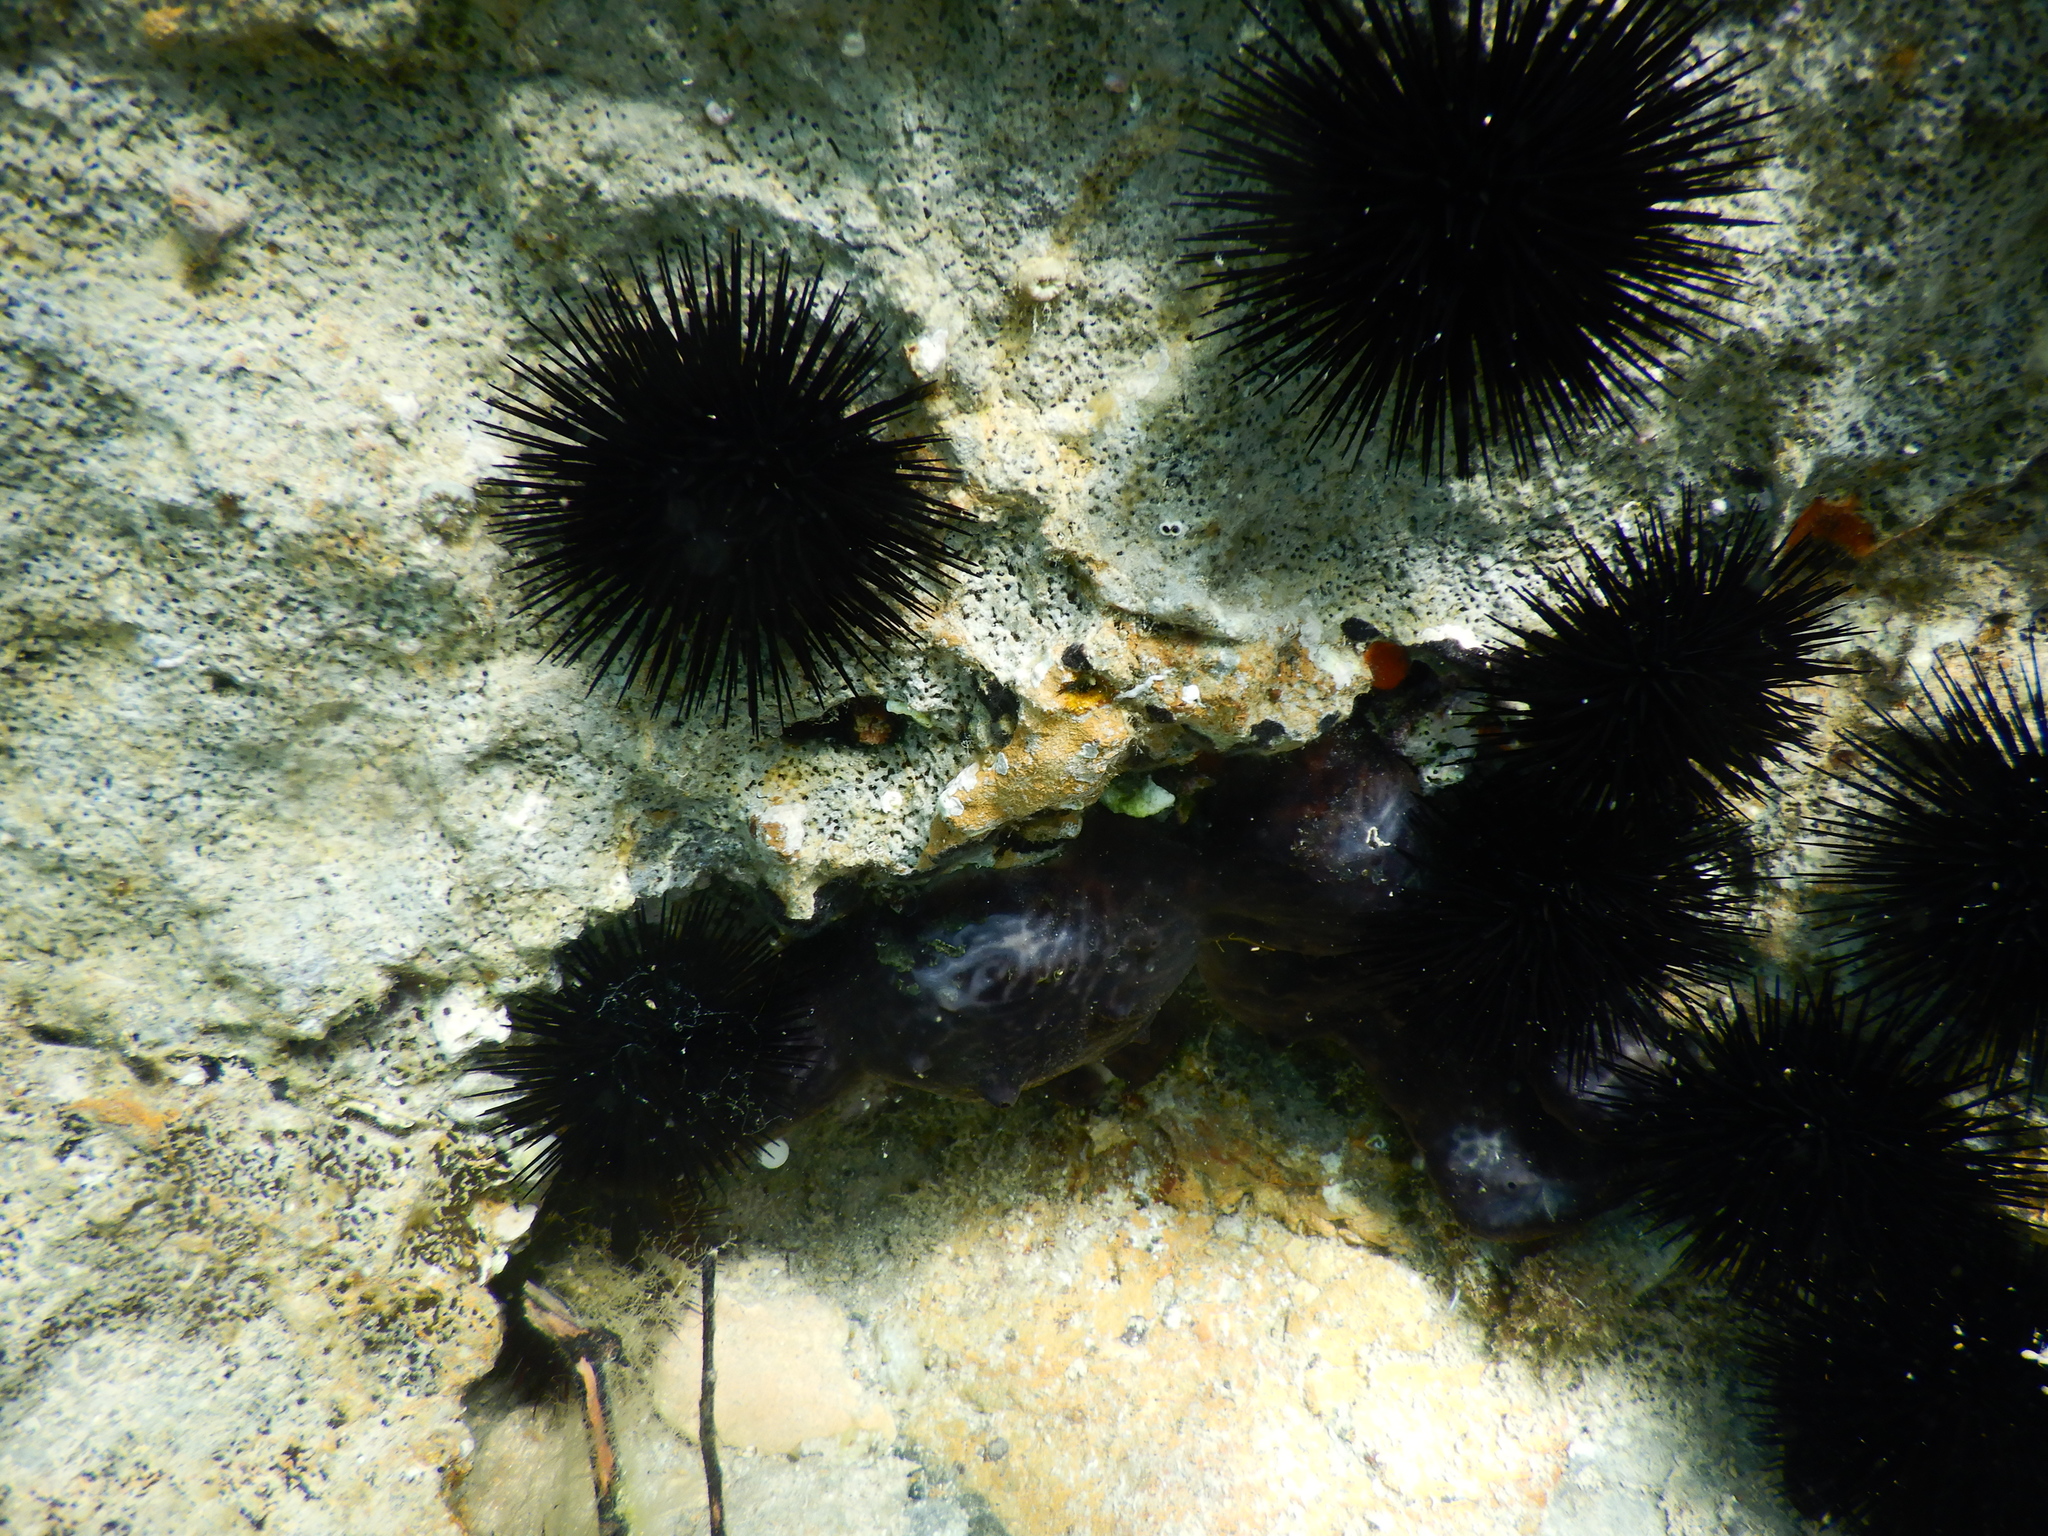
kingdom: Animalia
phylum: Porifera
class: Demospongiae
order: Chondrosiida
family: Chondrosiidae
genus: Chondrosia
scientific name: Chondrosia reniformis
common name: Chicken liver sponge
